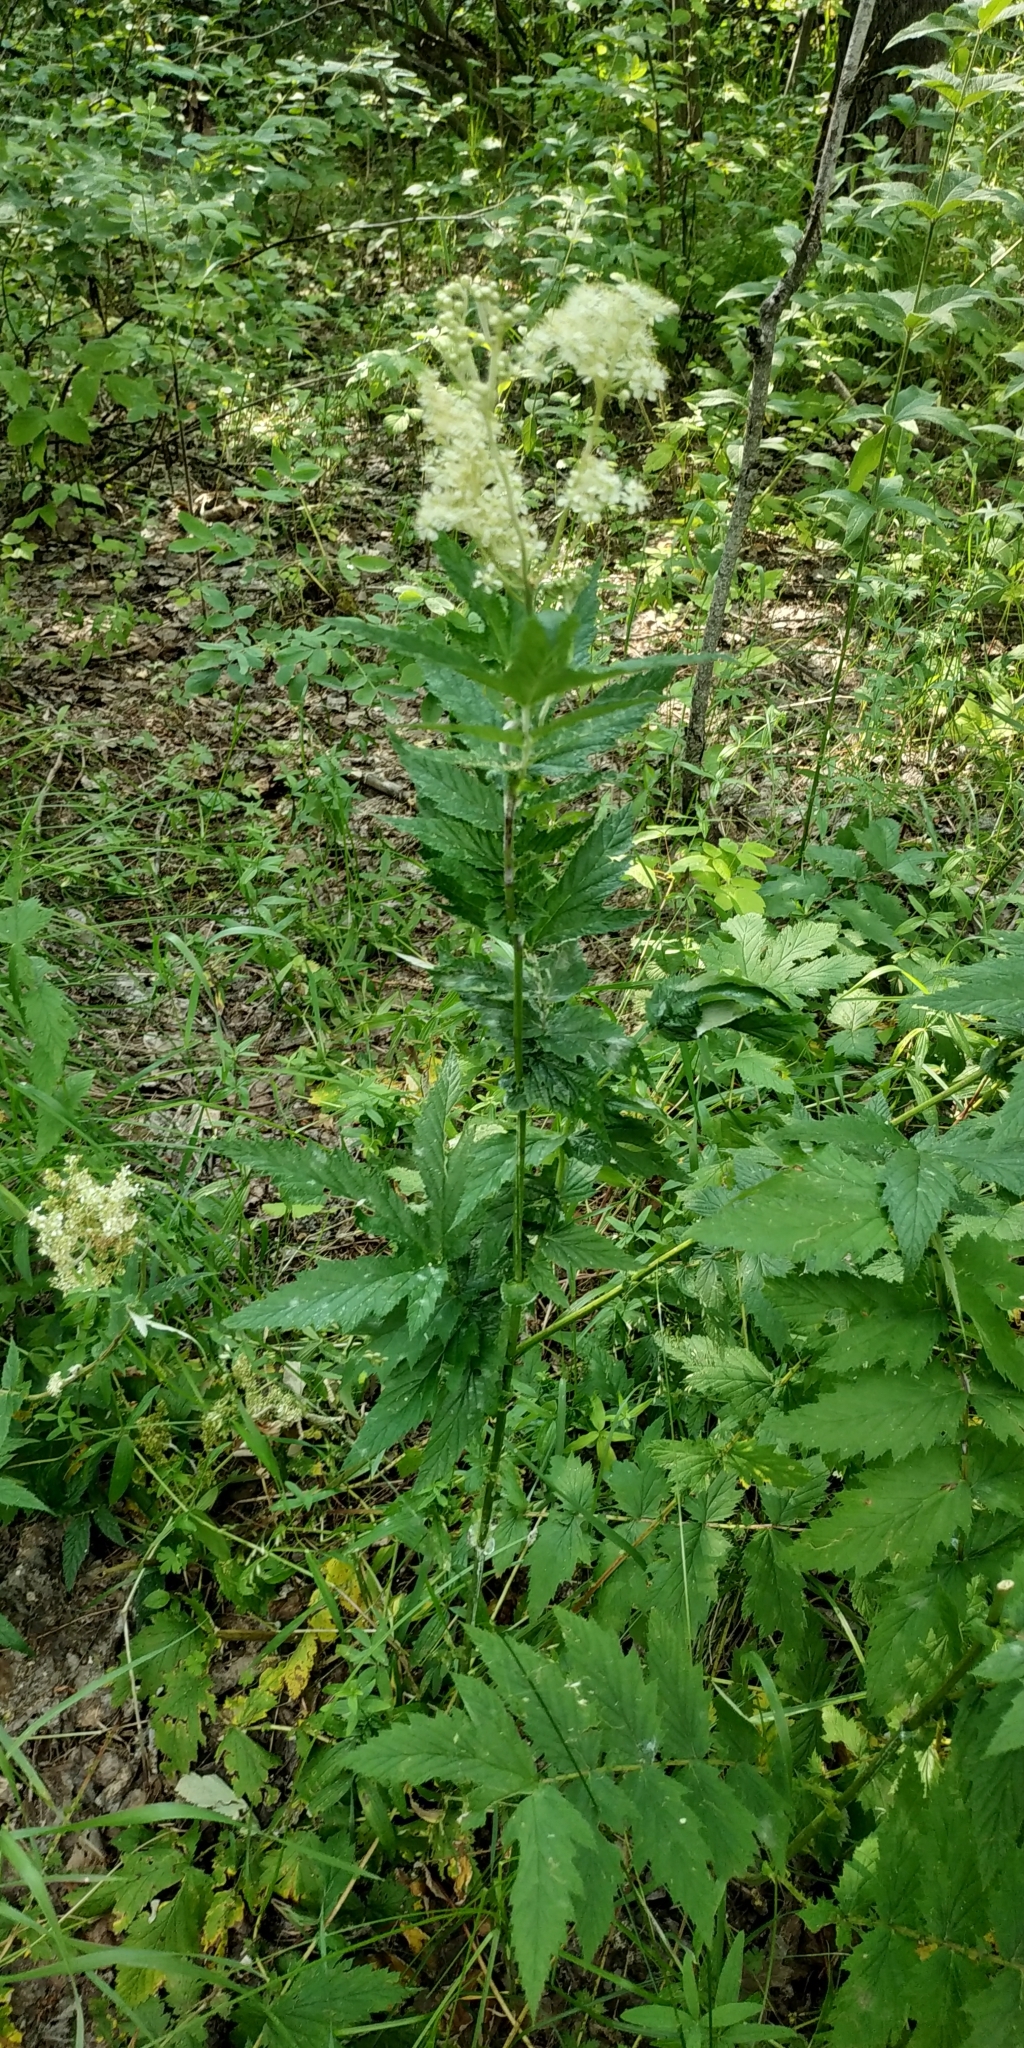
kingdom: Plantae
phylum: Tracheophyta
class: Magnoliopsida
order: Rosales
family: Rosaceae
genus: Filipendula
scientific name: Filipendula ulmaria
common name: Meadowsweet
